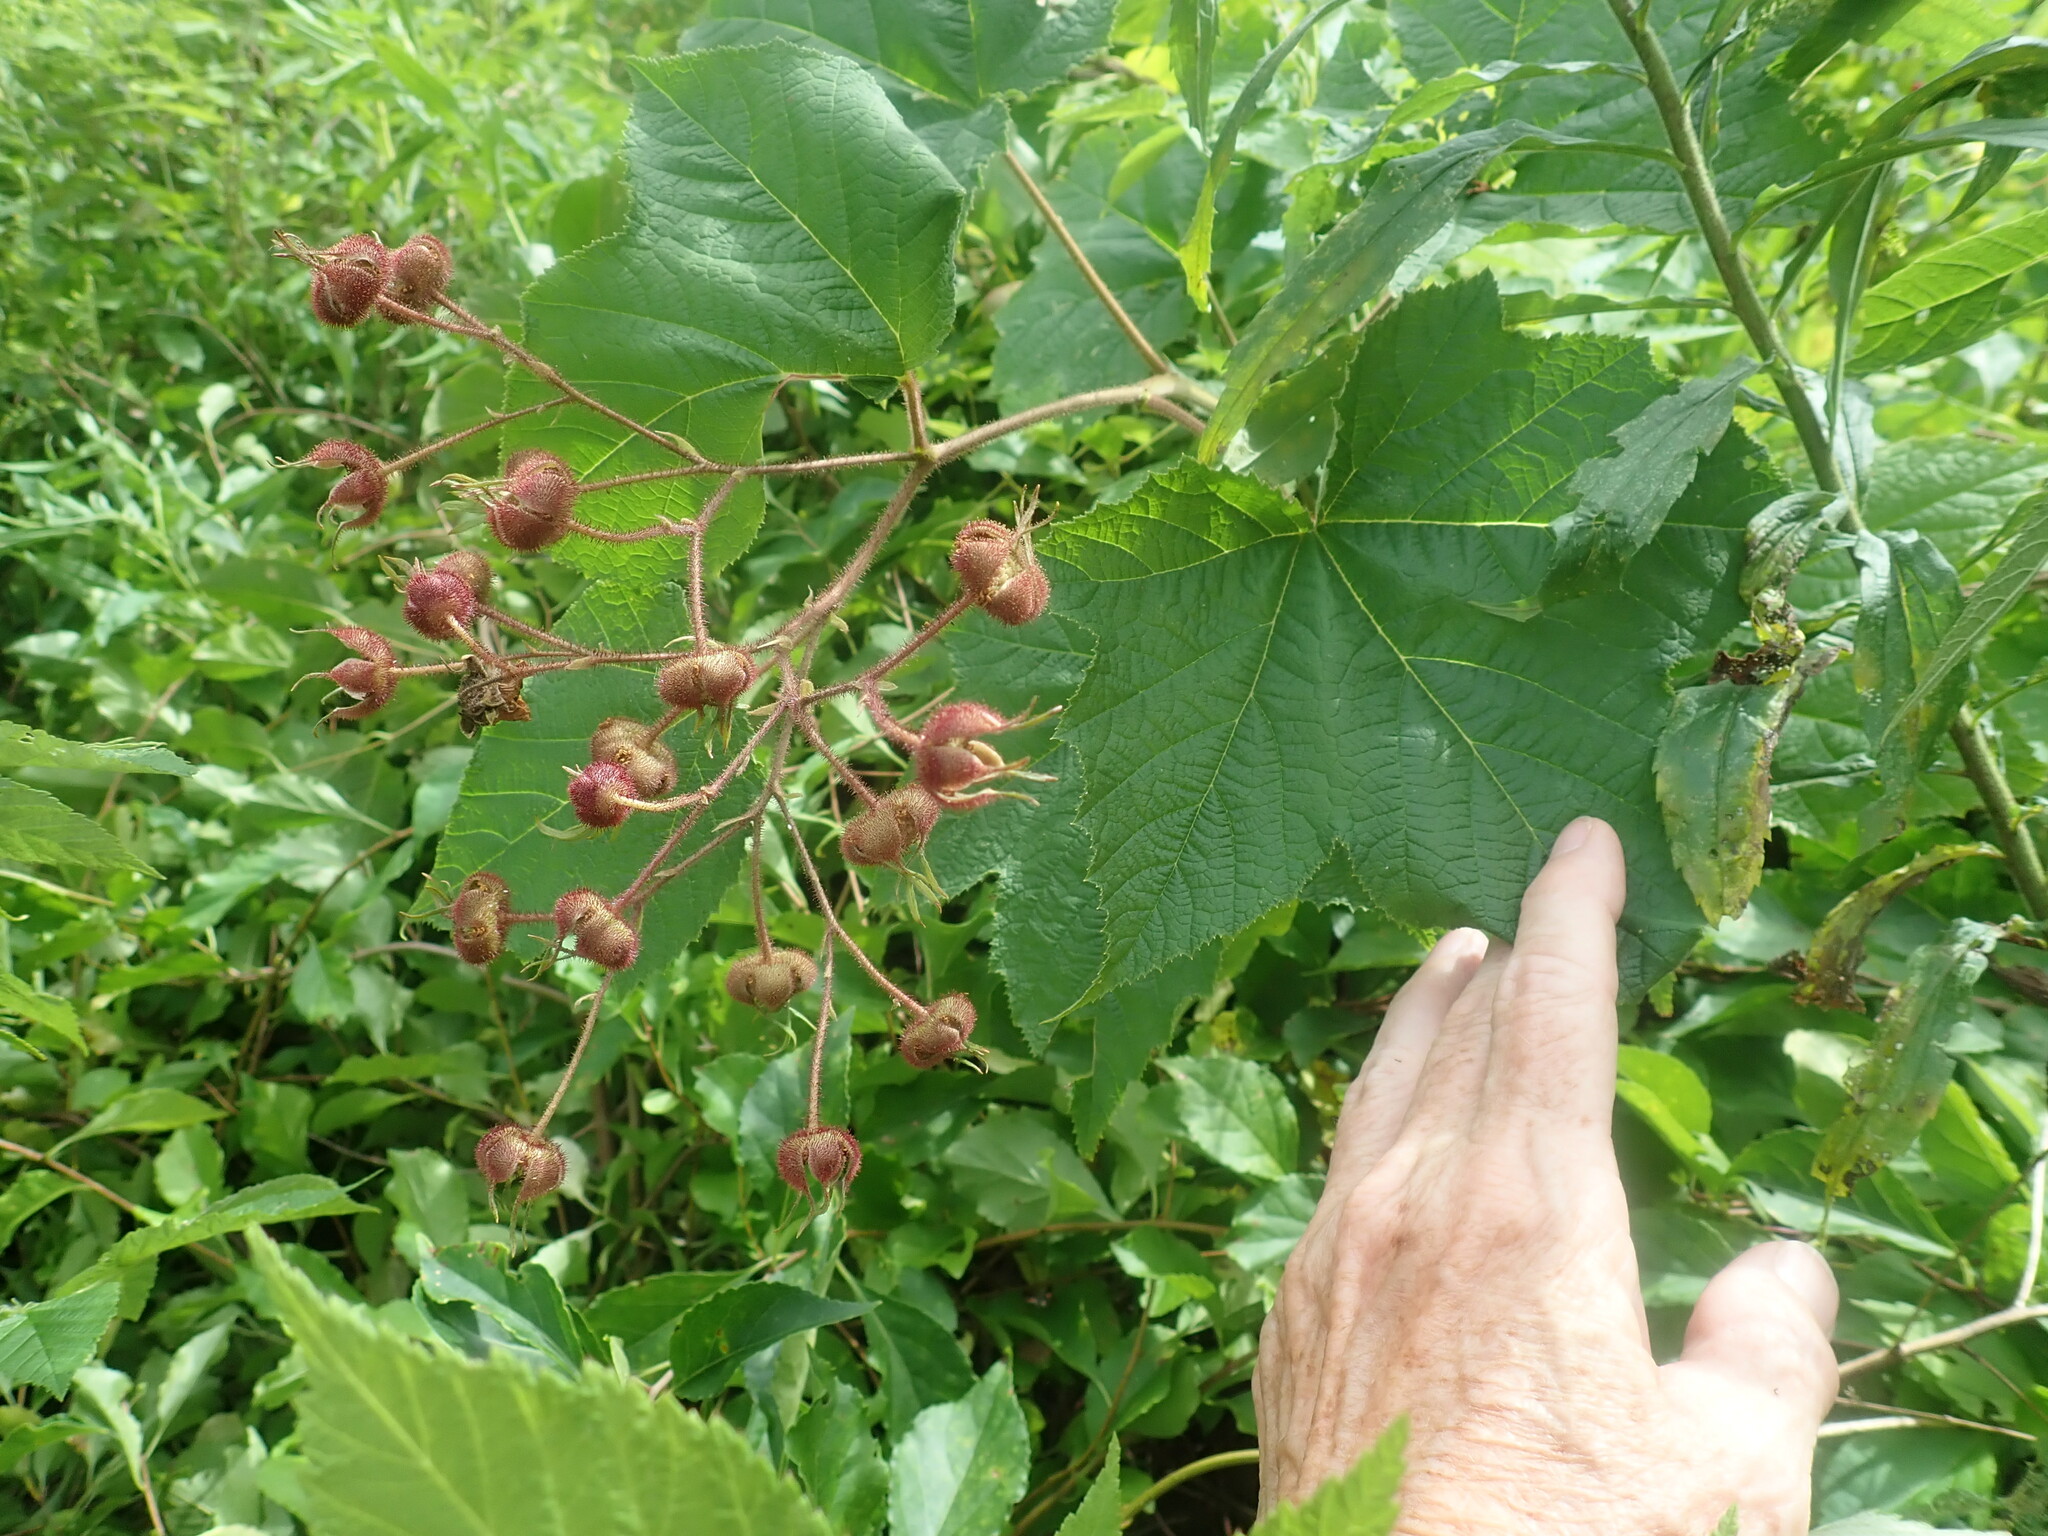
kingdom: Plantae
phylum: Tracheophyta
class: Magnoliopsida
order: Rosales
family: Rosaceae
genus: Rubus
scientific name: Rubus odoratus
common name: Purple-flowered raspberry
